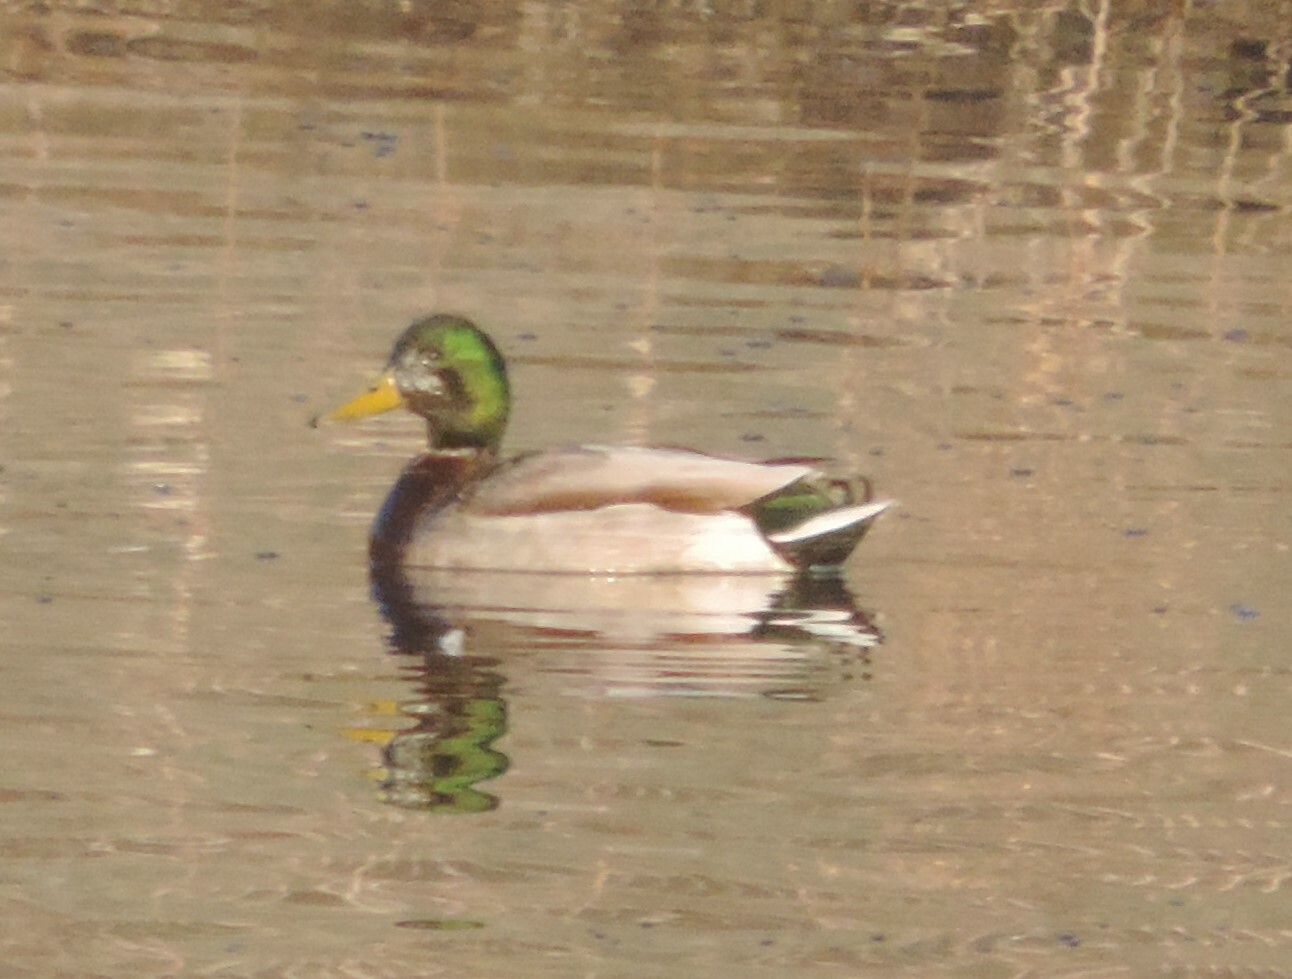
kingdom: Animalia
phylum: Chordata
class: Aves
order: Anseriformes
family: Anatidae
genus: Anas
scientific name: Anas platyrhynchos
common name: Mallard
